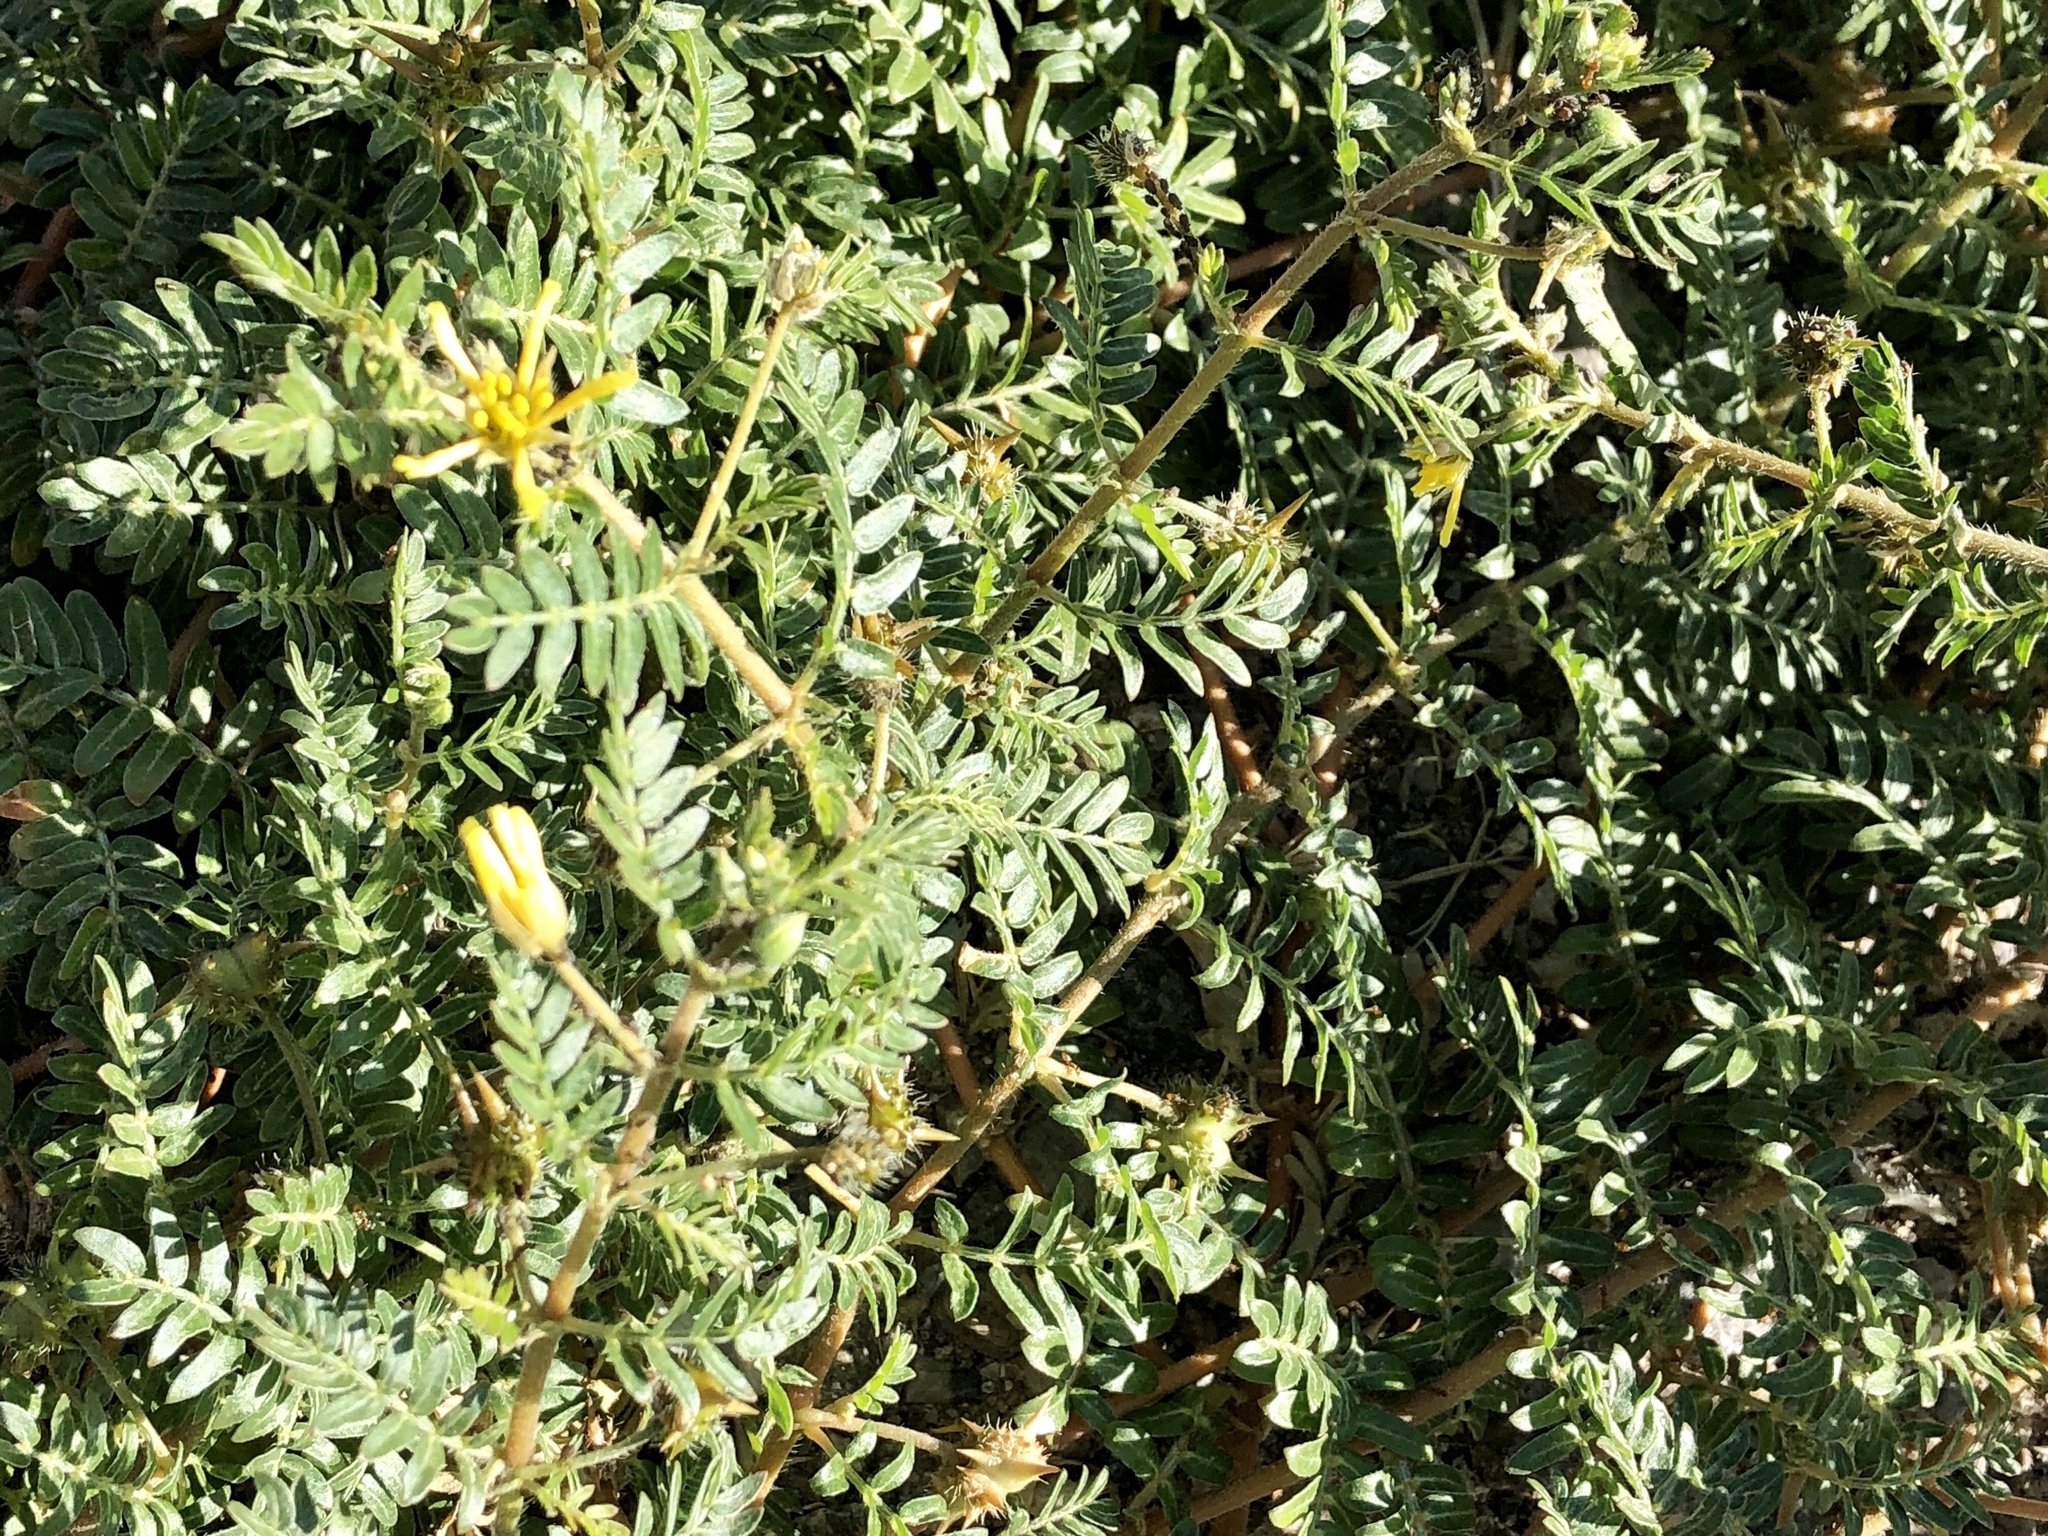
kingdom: Plantae
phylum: Tracheophyta
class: Magnoliopsida
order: Zygophyllales
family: Zygophyllaceae
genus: Tribulus
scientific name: Tribulus terrestris
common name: Puncturevine
